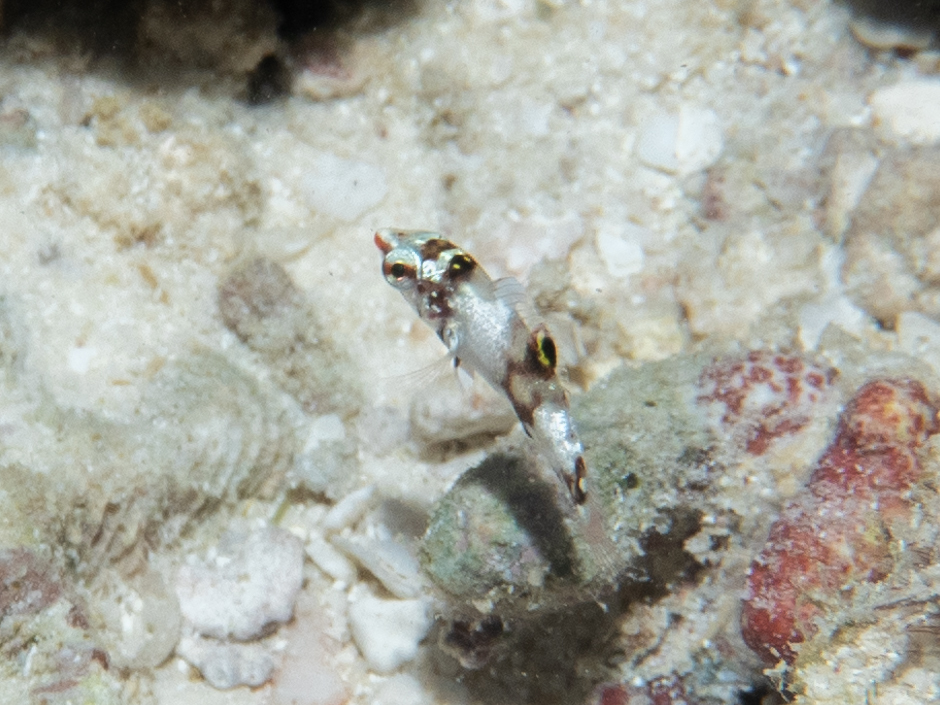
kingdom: Animalia
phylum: Chordata
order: Perciformes
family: Labridae
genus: Halichoeres
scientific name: Halichoeres hortulanus
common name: Checkerboard wrasse
